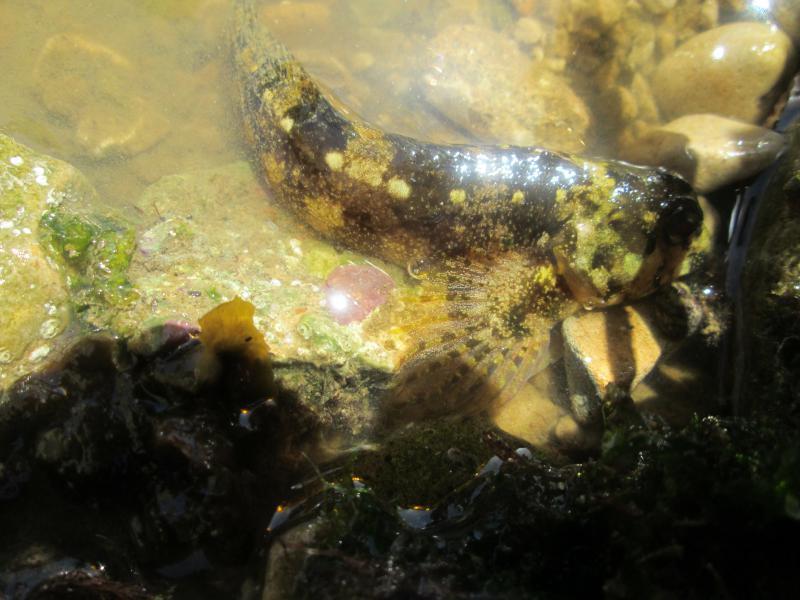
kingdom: Animalia
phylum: Chordata
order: Perciformes
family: Blenniidae
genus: Lipophrys
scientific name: Lipophrys pholis
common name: Shanny
